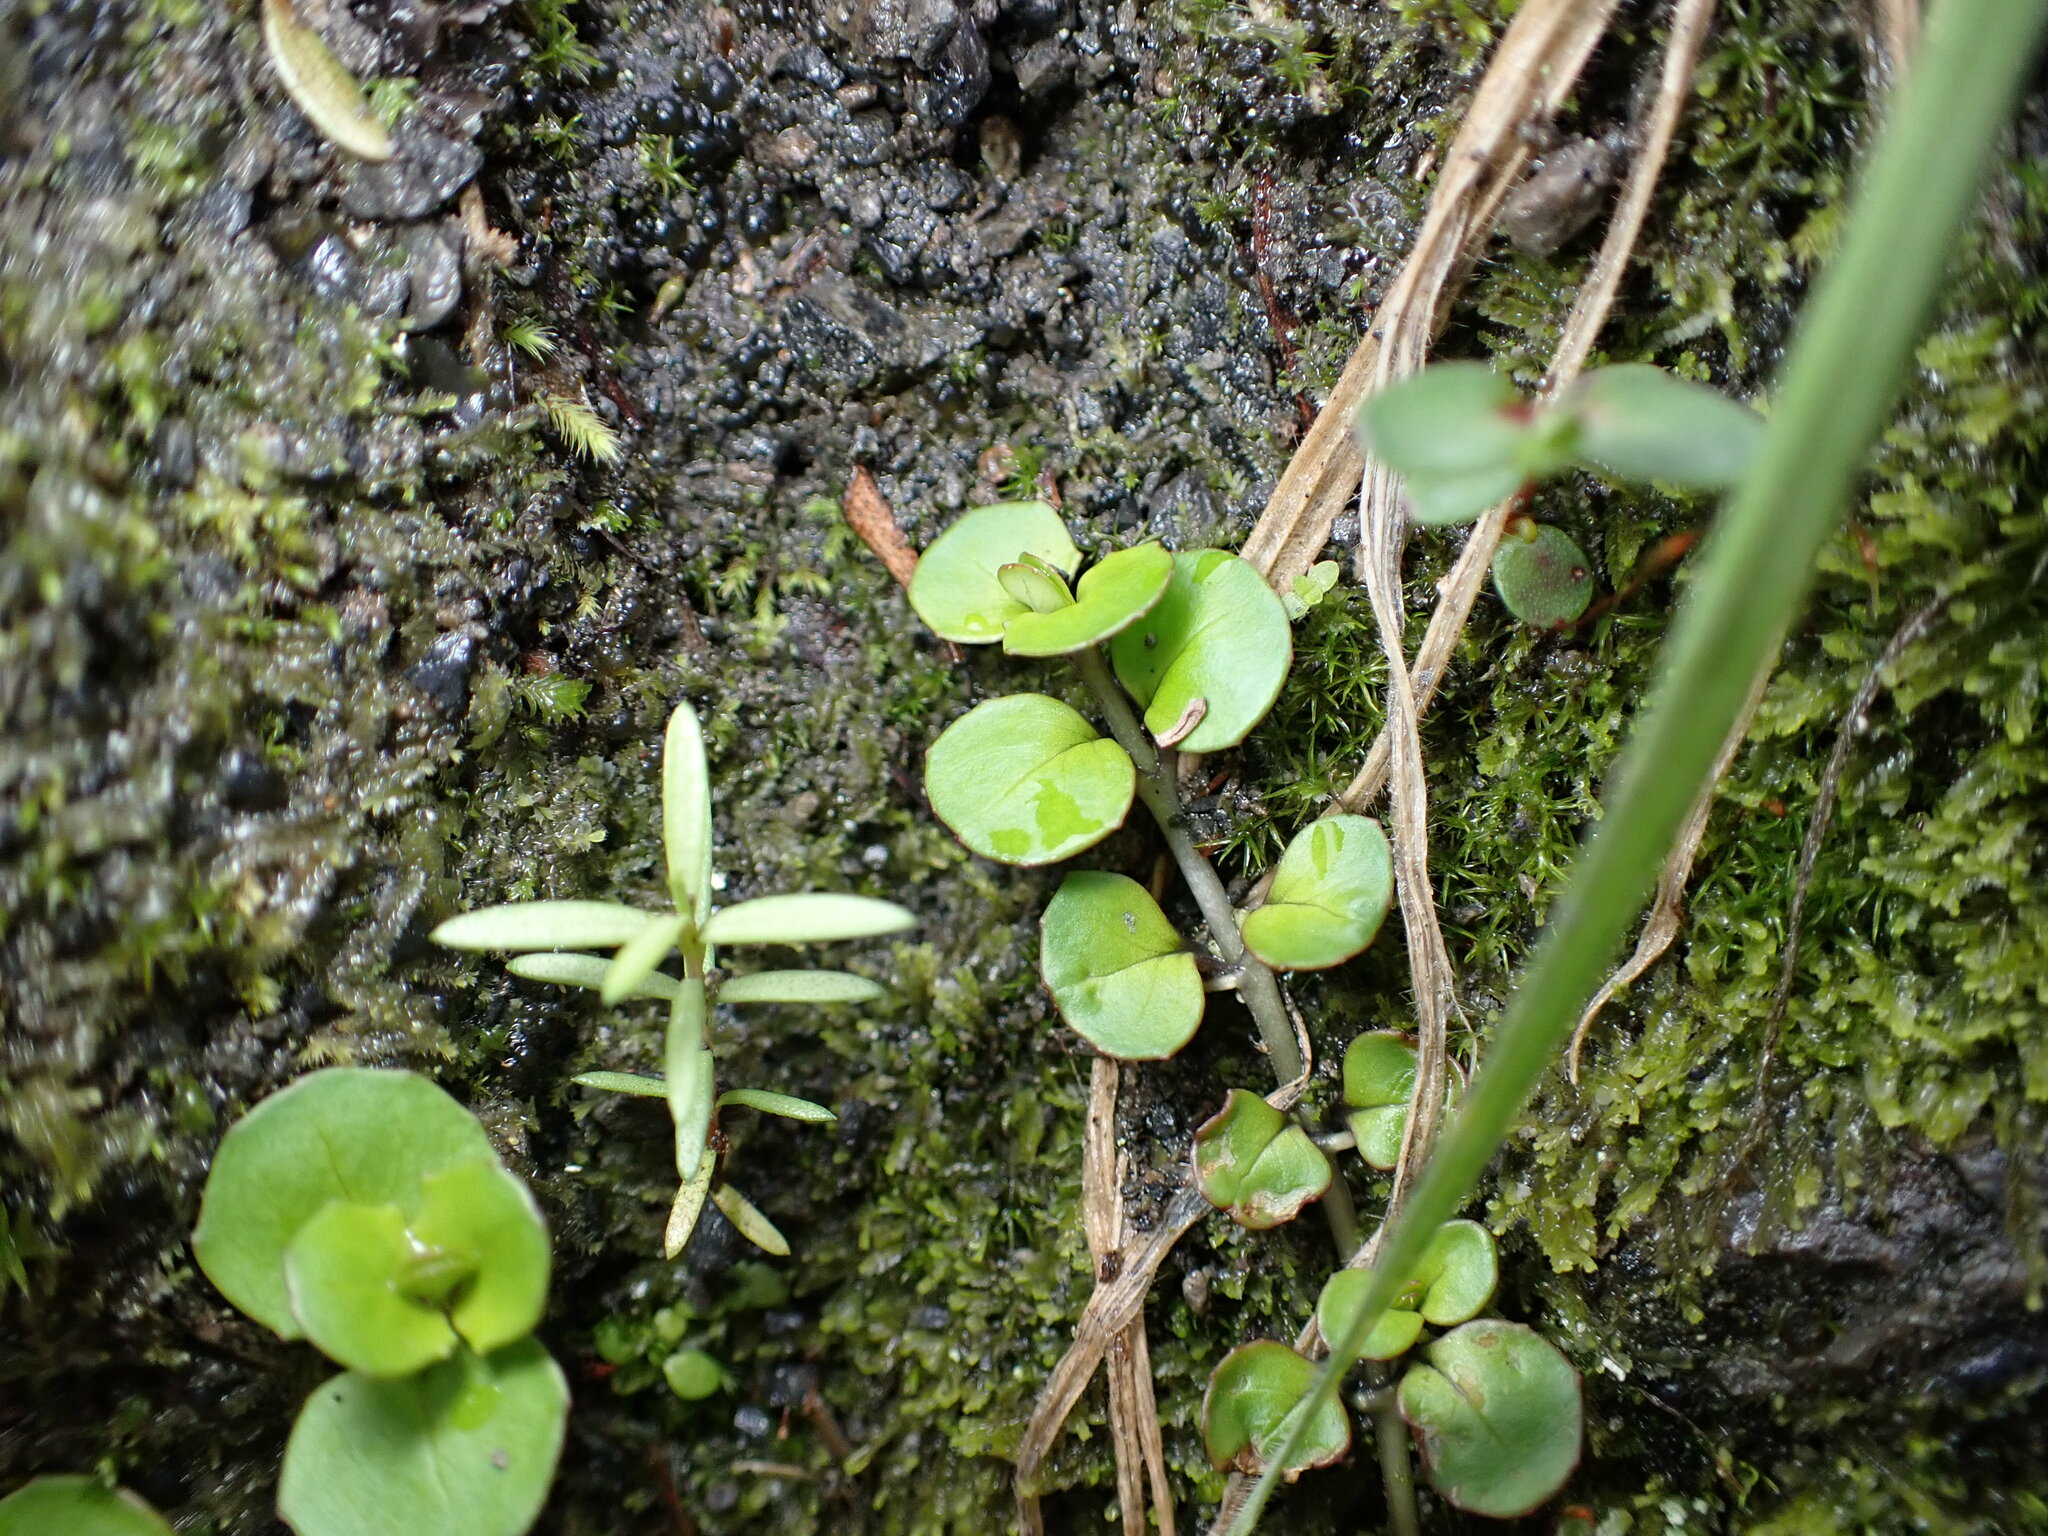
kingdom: Plantae
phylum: Tracheophyta
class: Magnoliopsida
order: Myrtales
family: Onagraceae
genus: Epilobium
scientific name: Epilobium nummularifolium
